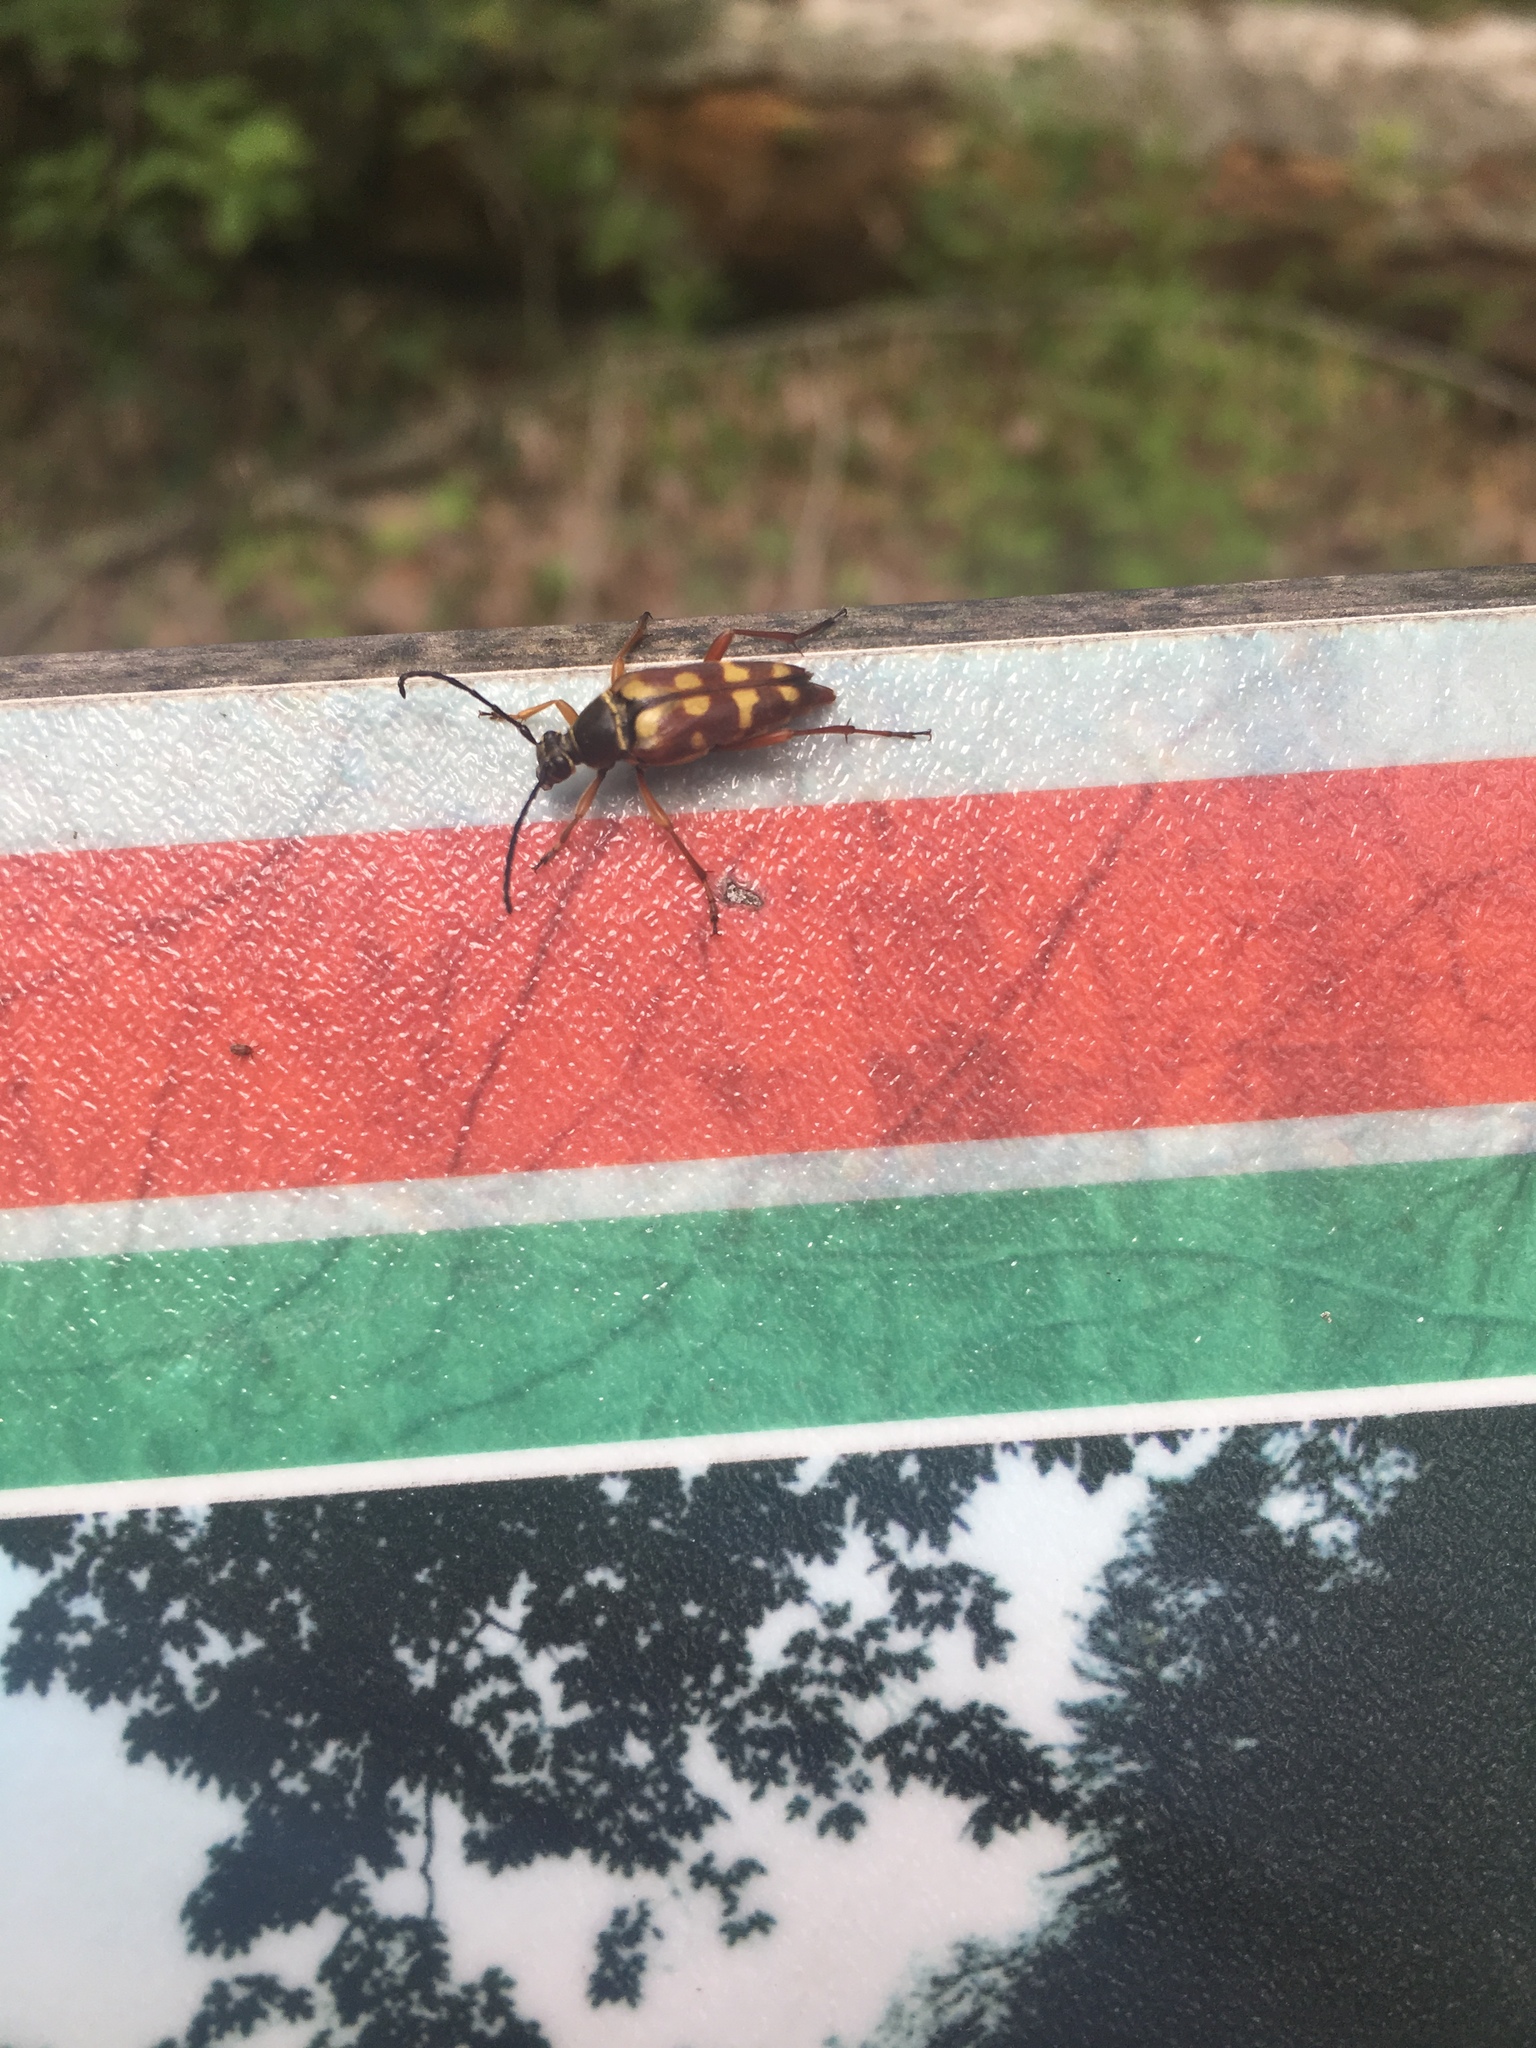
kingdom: Animalia
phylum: Arthropoda
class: Insecta
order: Coleoptera
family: Cerambycidae
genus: Typocerus
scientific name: Typocerus velutinus
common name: Banded longhorn beetle
